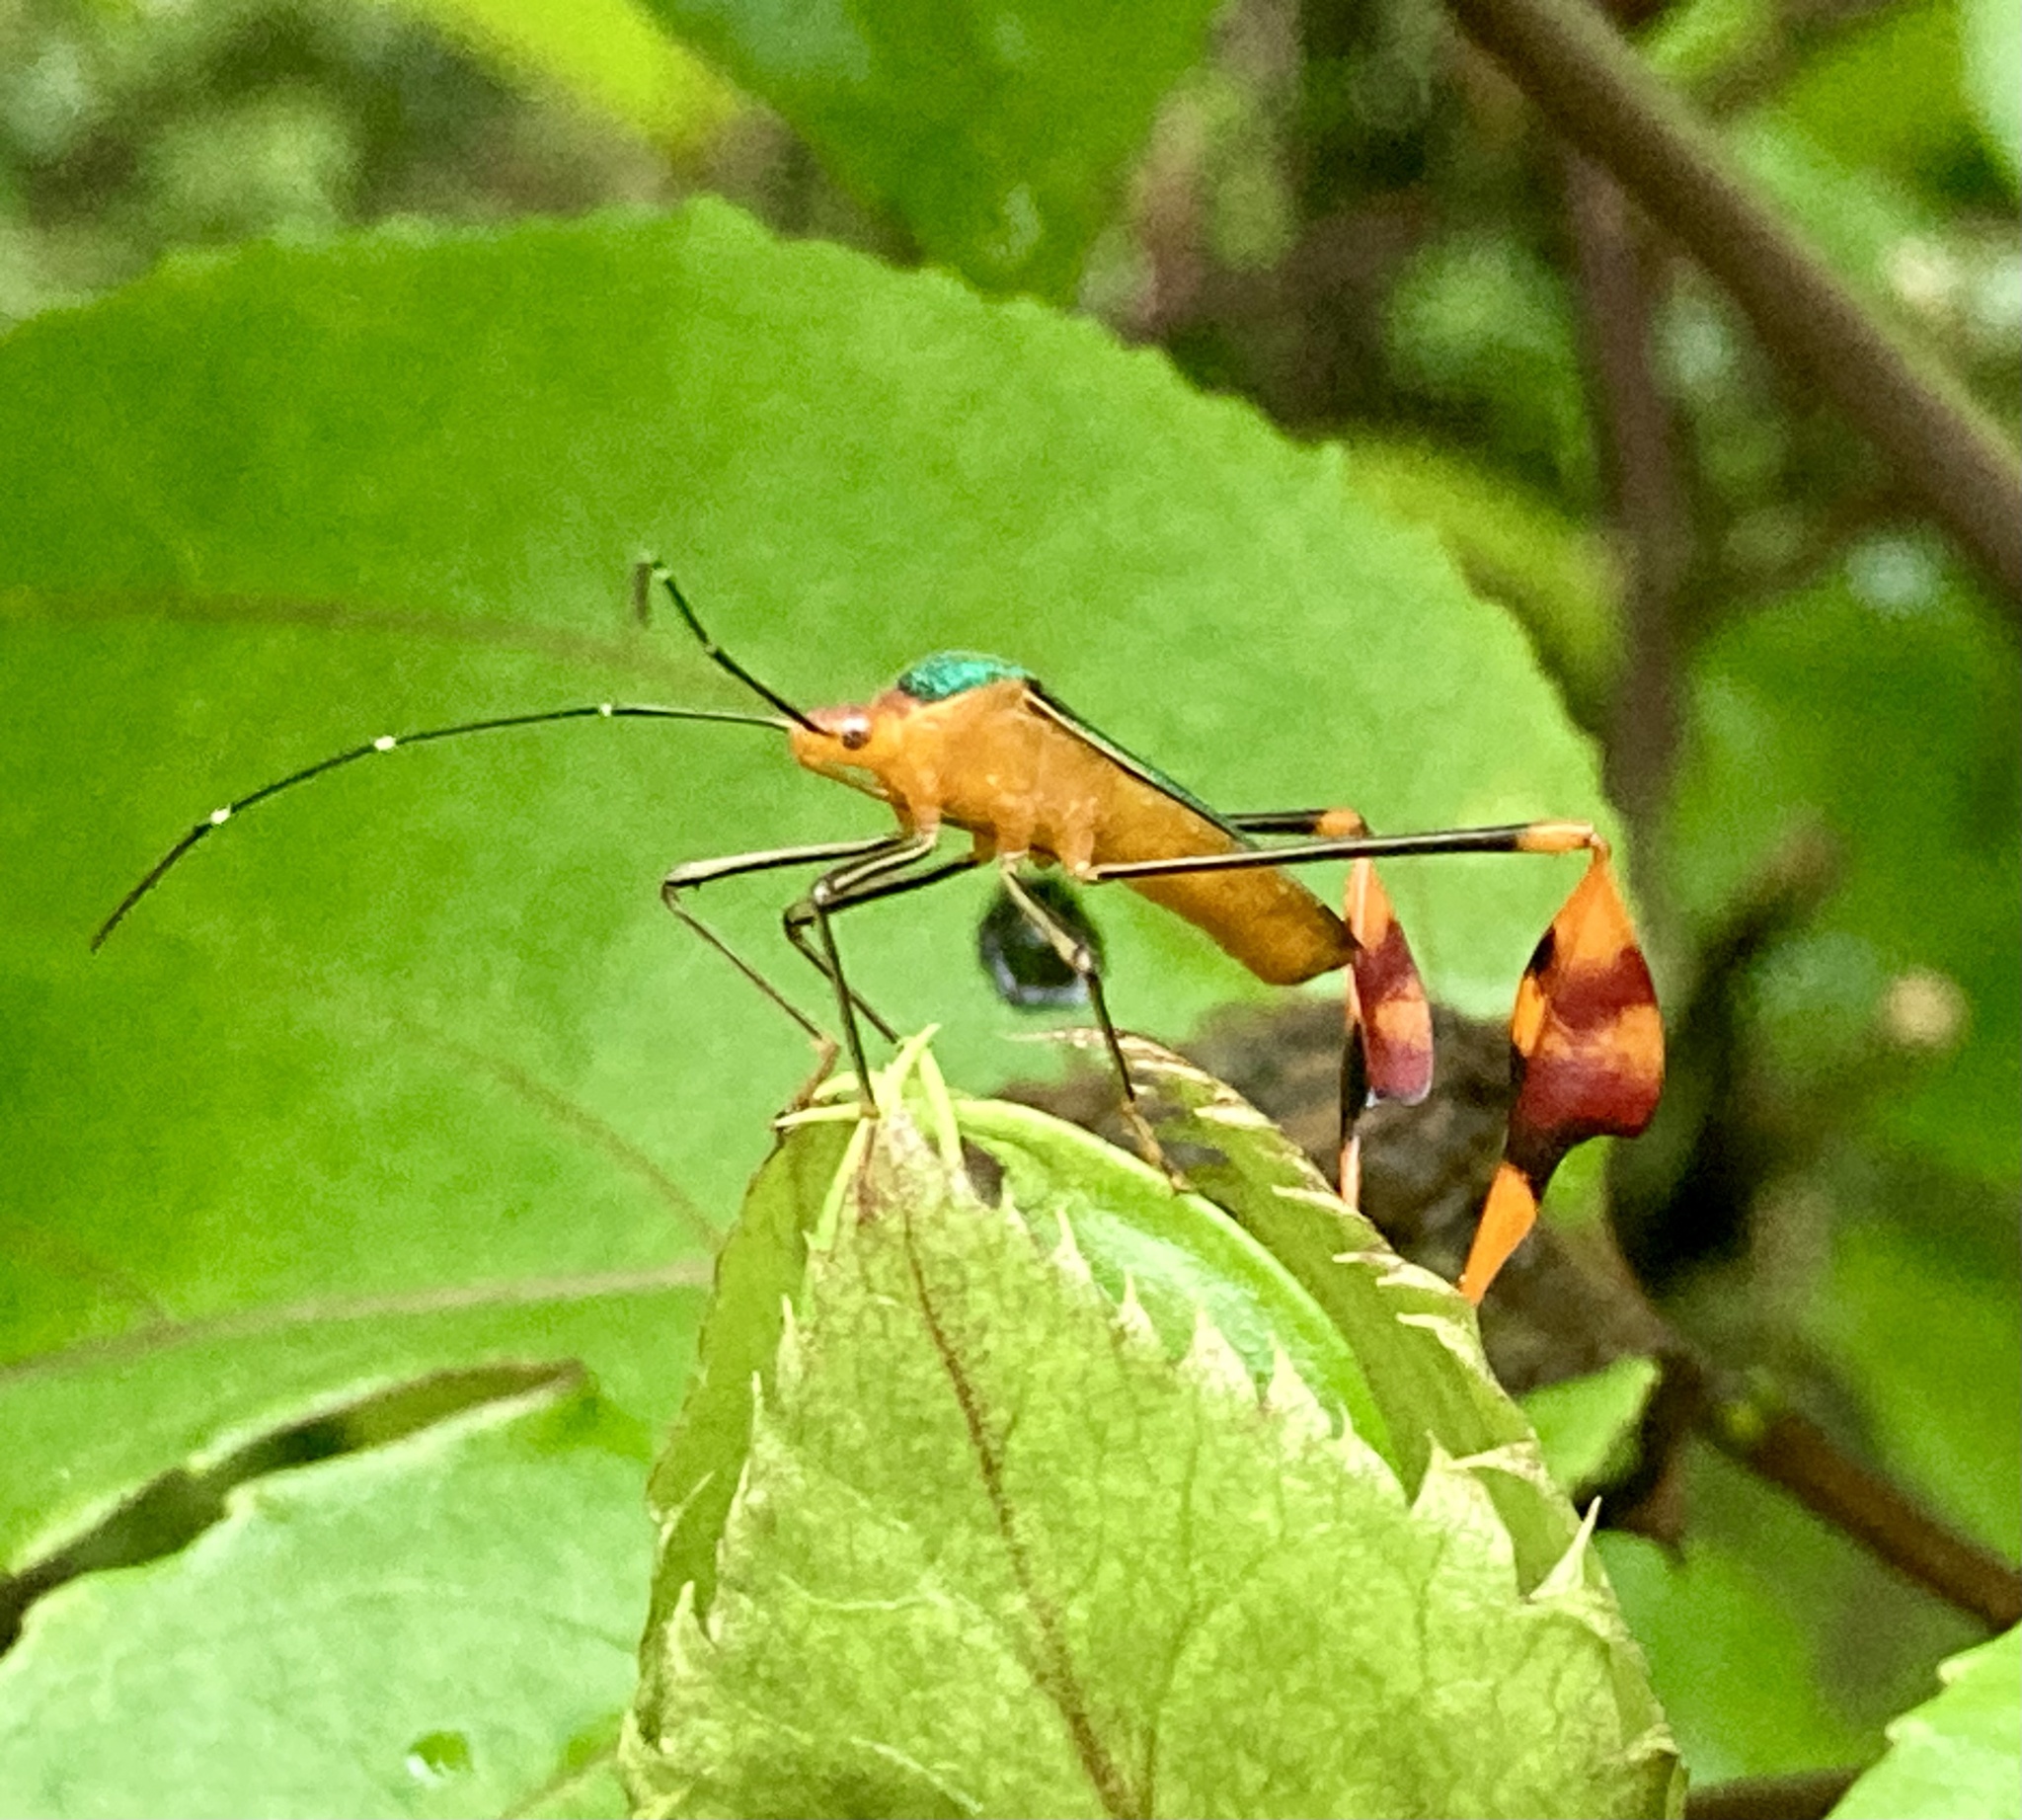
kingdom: Animalia
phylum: Arthropoda
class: Insecta
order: Hemiptera
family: Coreidae
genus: Anisoscelis
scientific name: Anisoscelis foliaceus
